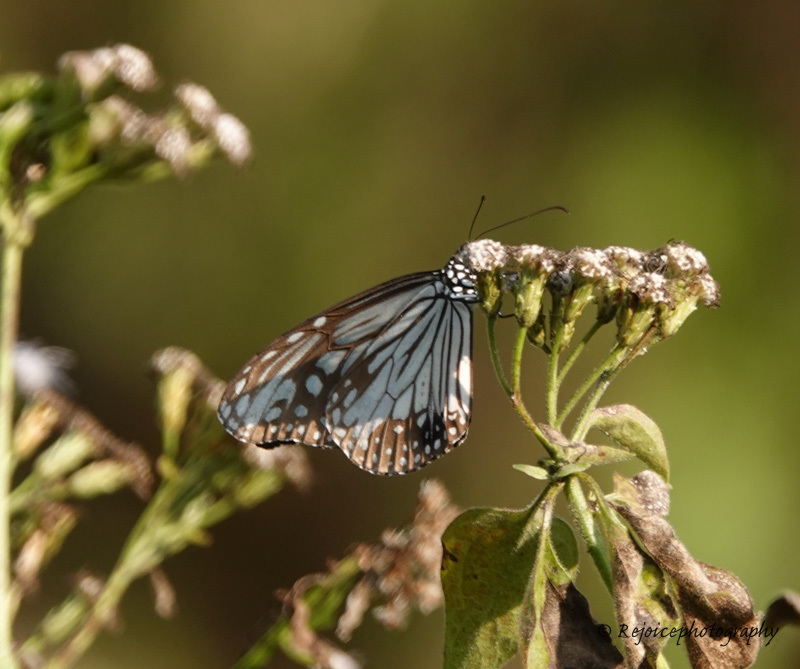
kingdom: Animalia
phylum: Arthropoda
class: Insecta
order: Lepidoptera
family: Nymphalidae
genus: Parantica
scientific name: Parantica aglea
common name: Glassy tiger
